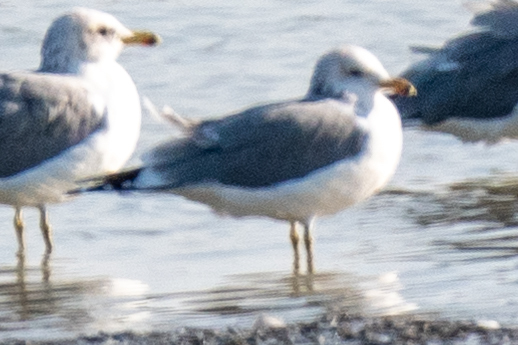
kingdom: Animalia
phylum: Chordata
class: Aves
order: Charadriiformes
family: Laridae
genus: Larus
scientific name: Larus californicus
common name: California gull
